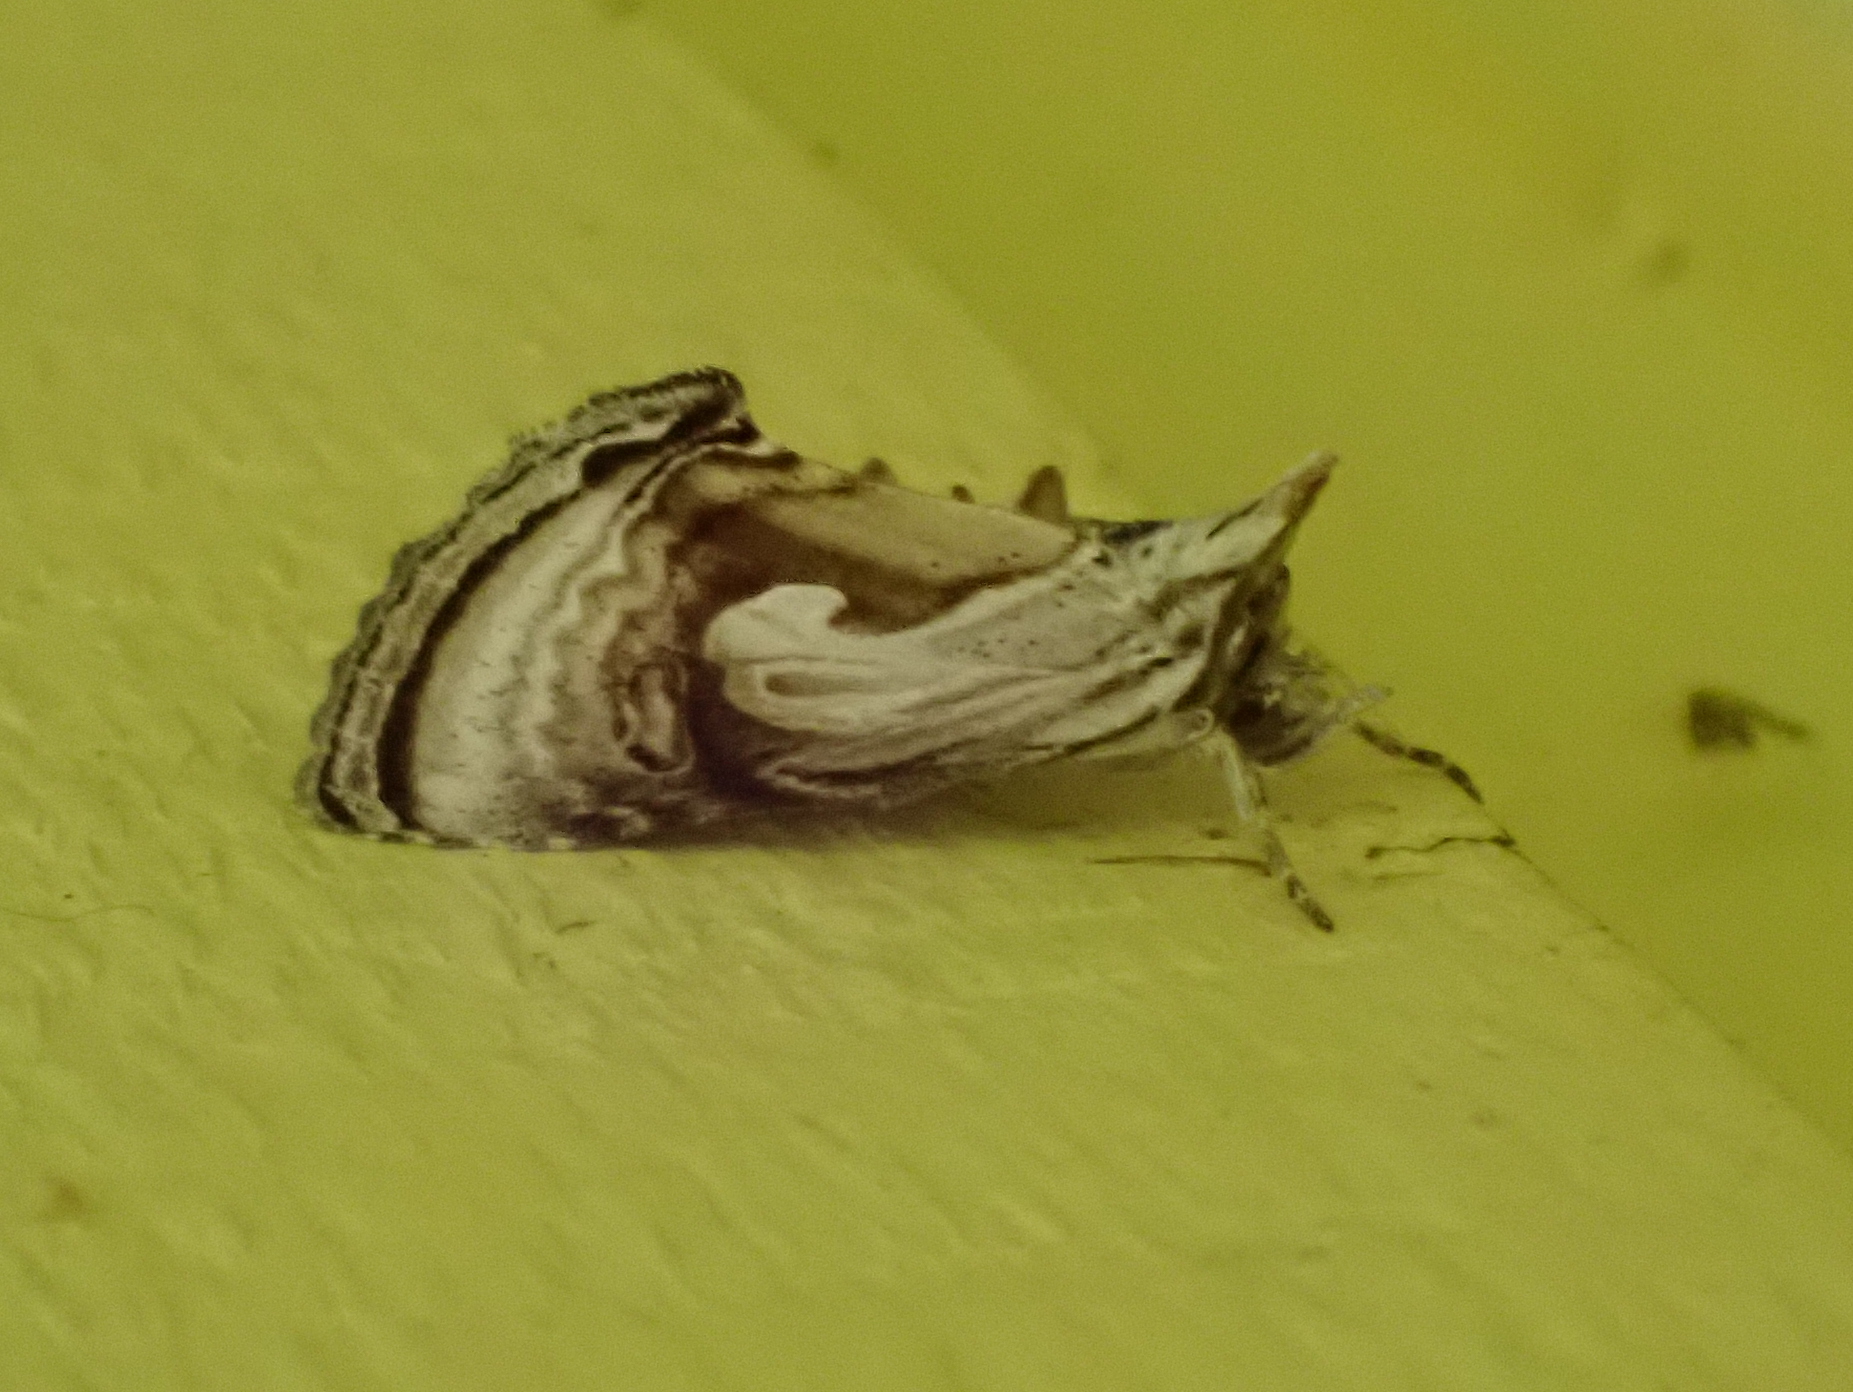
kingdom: Animalia
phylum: Arthropoda
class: Insecta
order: Lepidoptera
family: Noctuidae
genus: Chrysanympha
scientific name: Chrysanympha formosa
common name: Formosa looper moth
